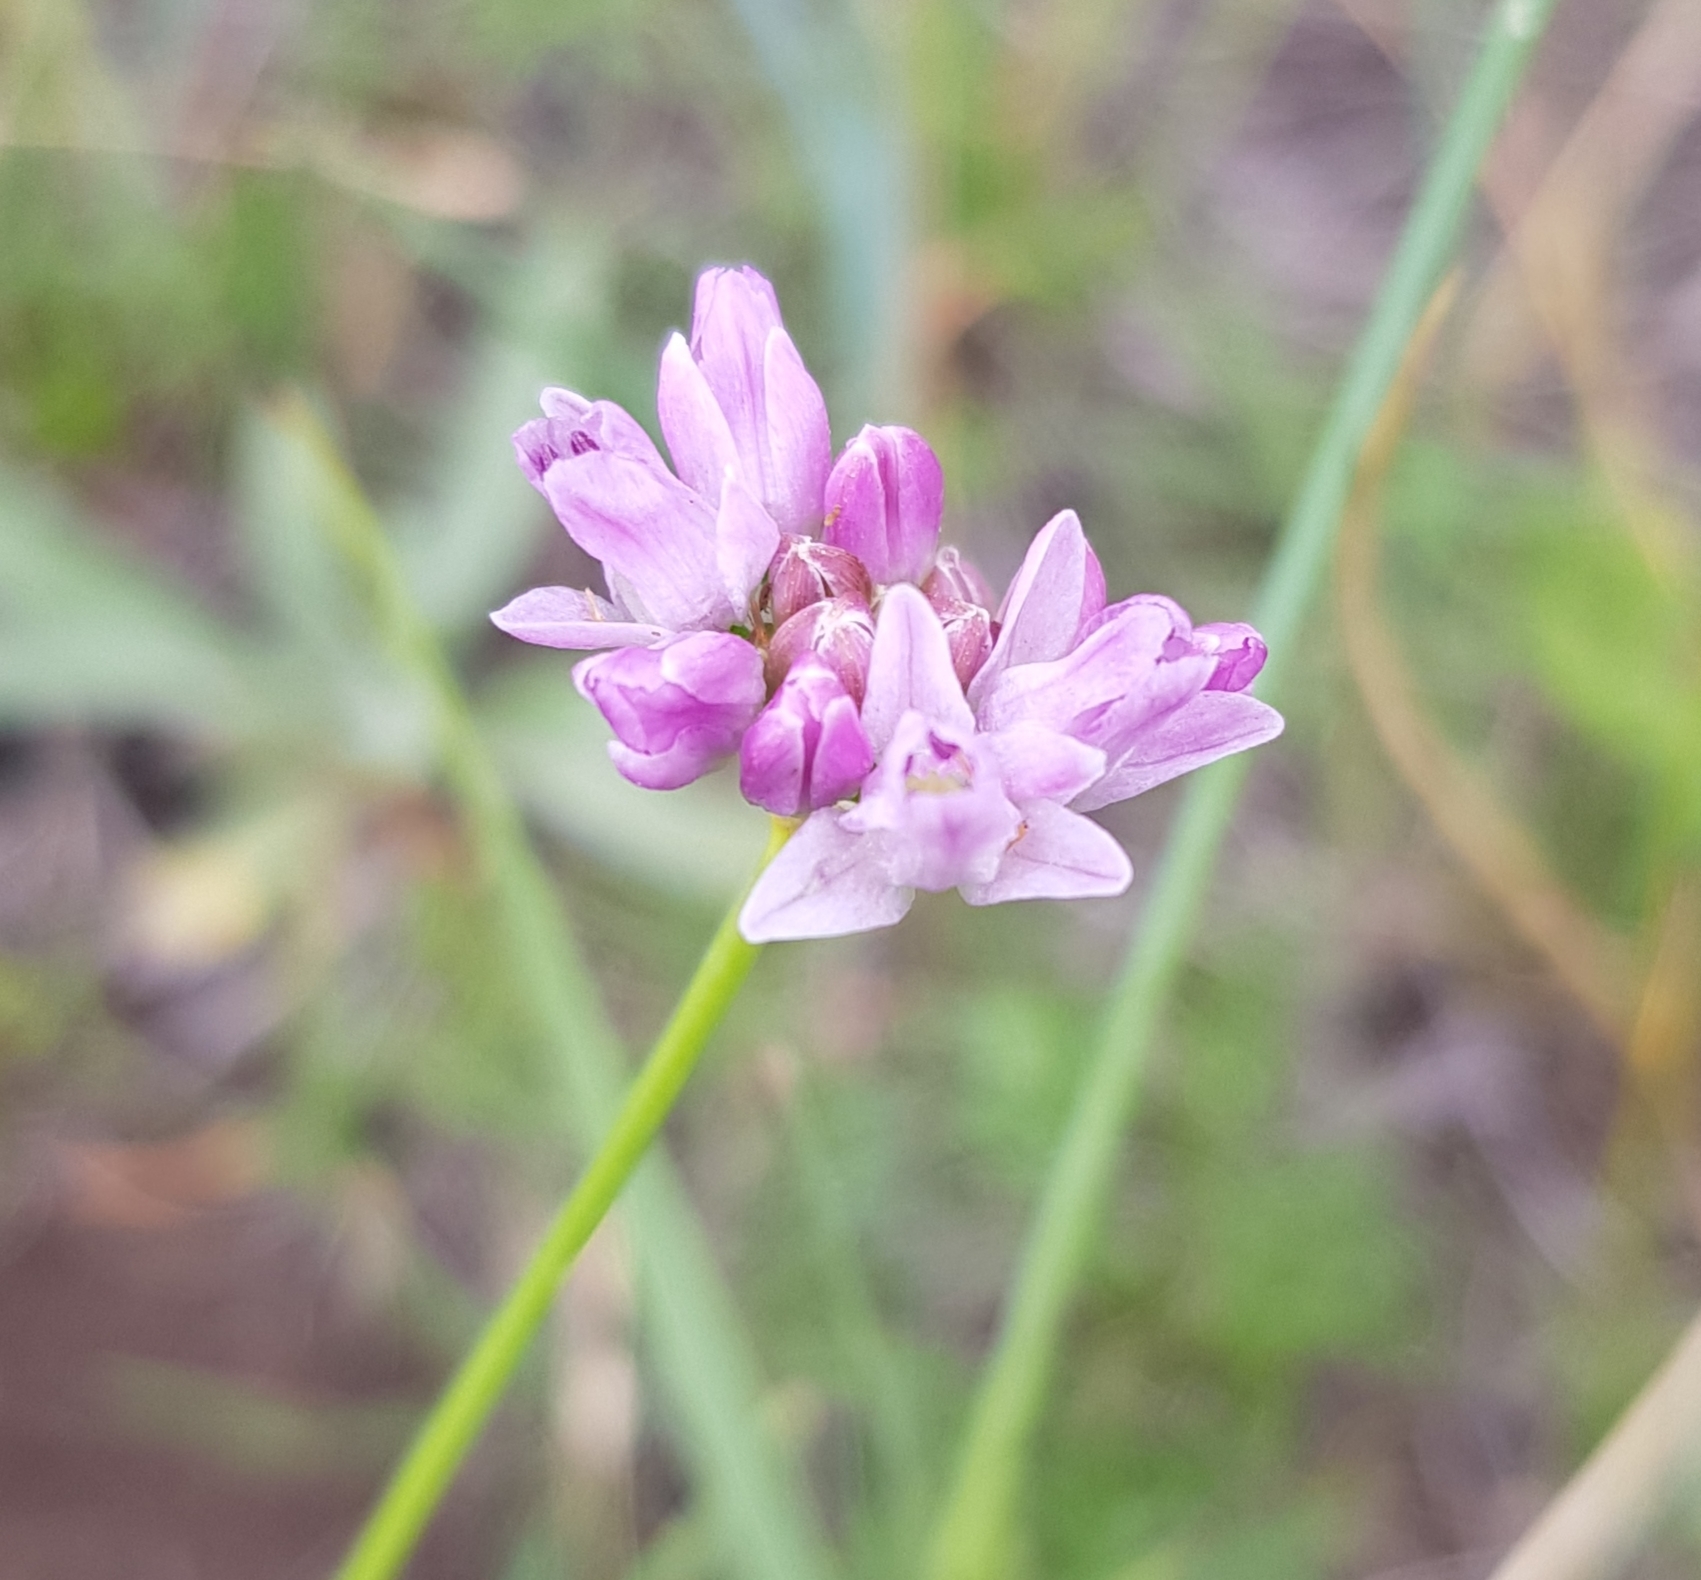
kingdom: Plantae
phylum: Tracheophyta
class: Liliopsida
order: Asparagales
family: Amaryllidaceae
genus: Allium
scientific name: Allium bidentatum
